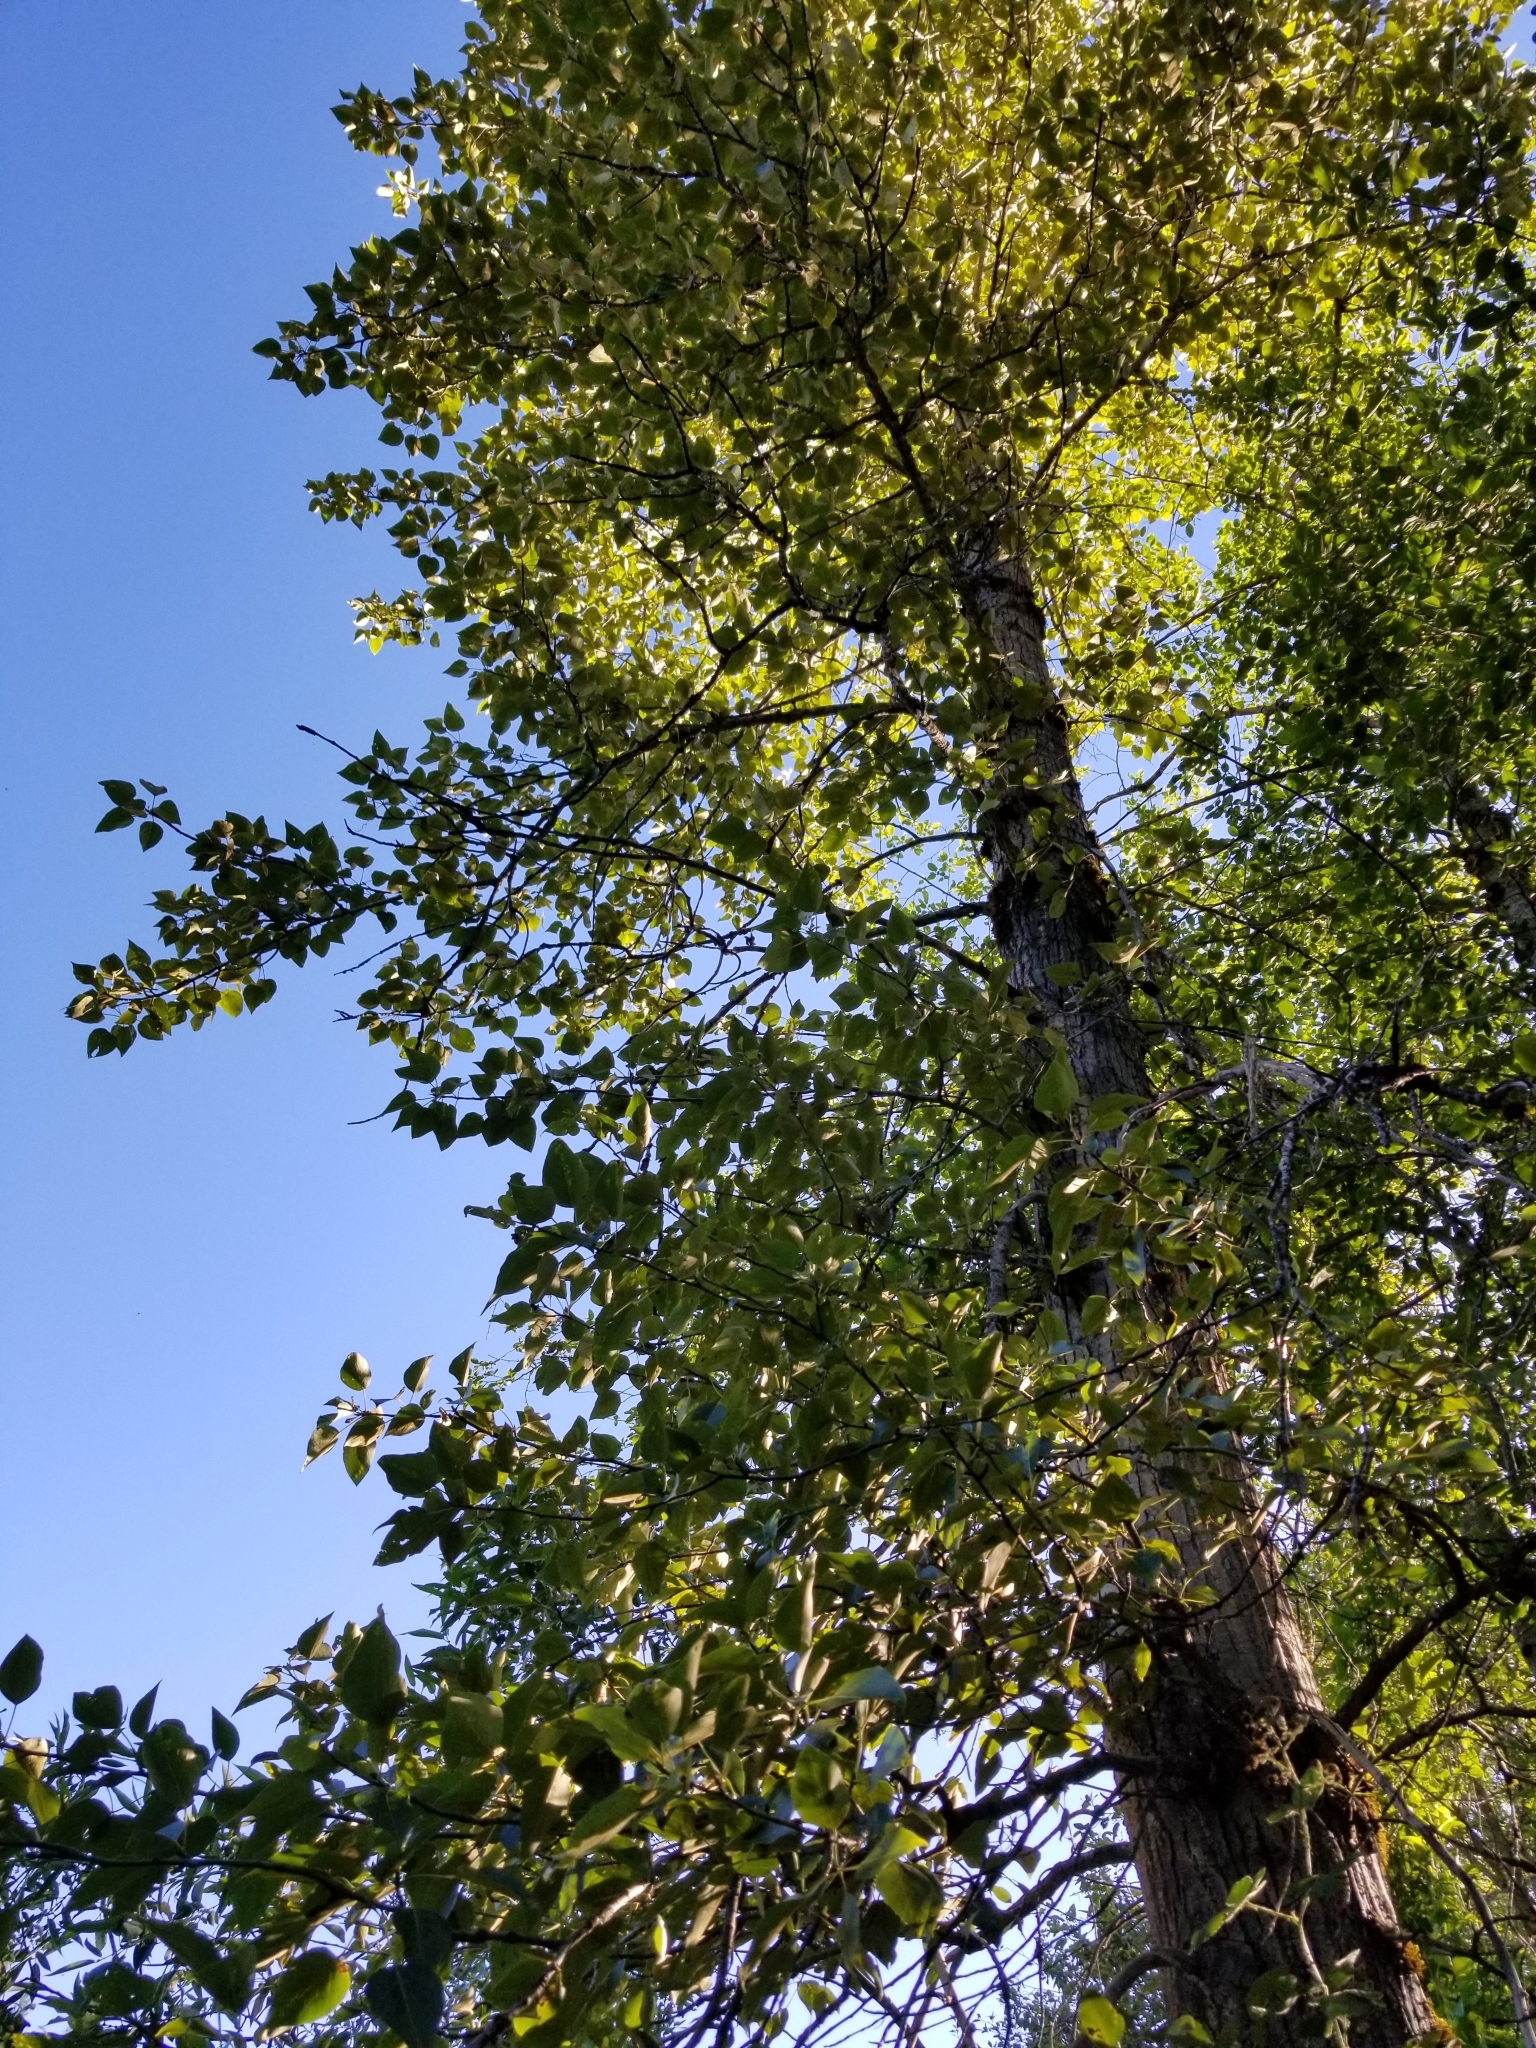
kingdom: Plantae
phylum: Tracheophyta
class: Magnoliopsida
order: Malpighiales
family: Salicaceae
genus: Populus
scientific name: Populus trichocarpa
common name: Black cottonwood
